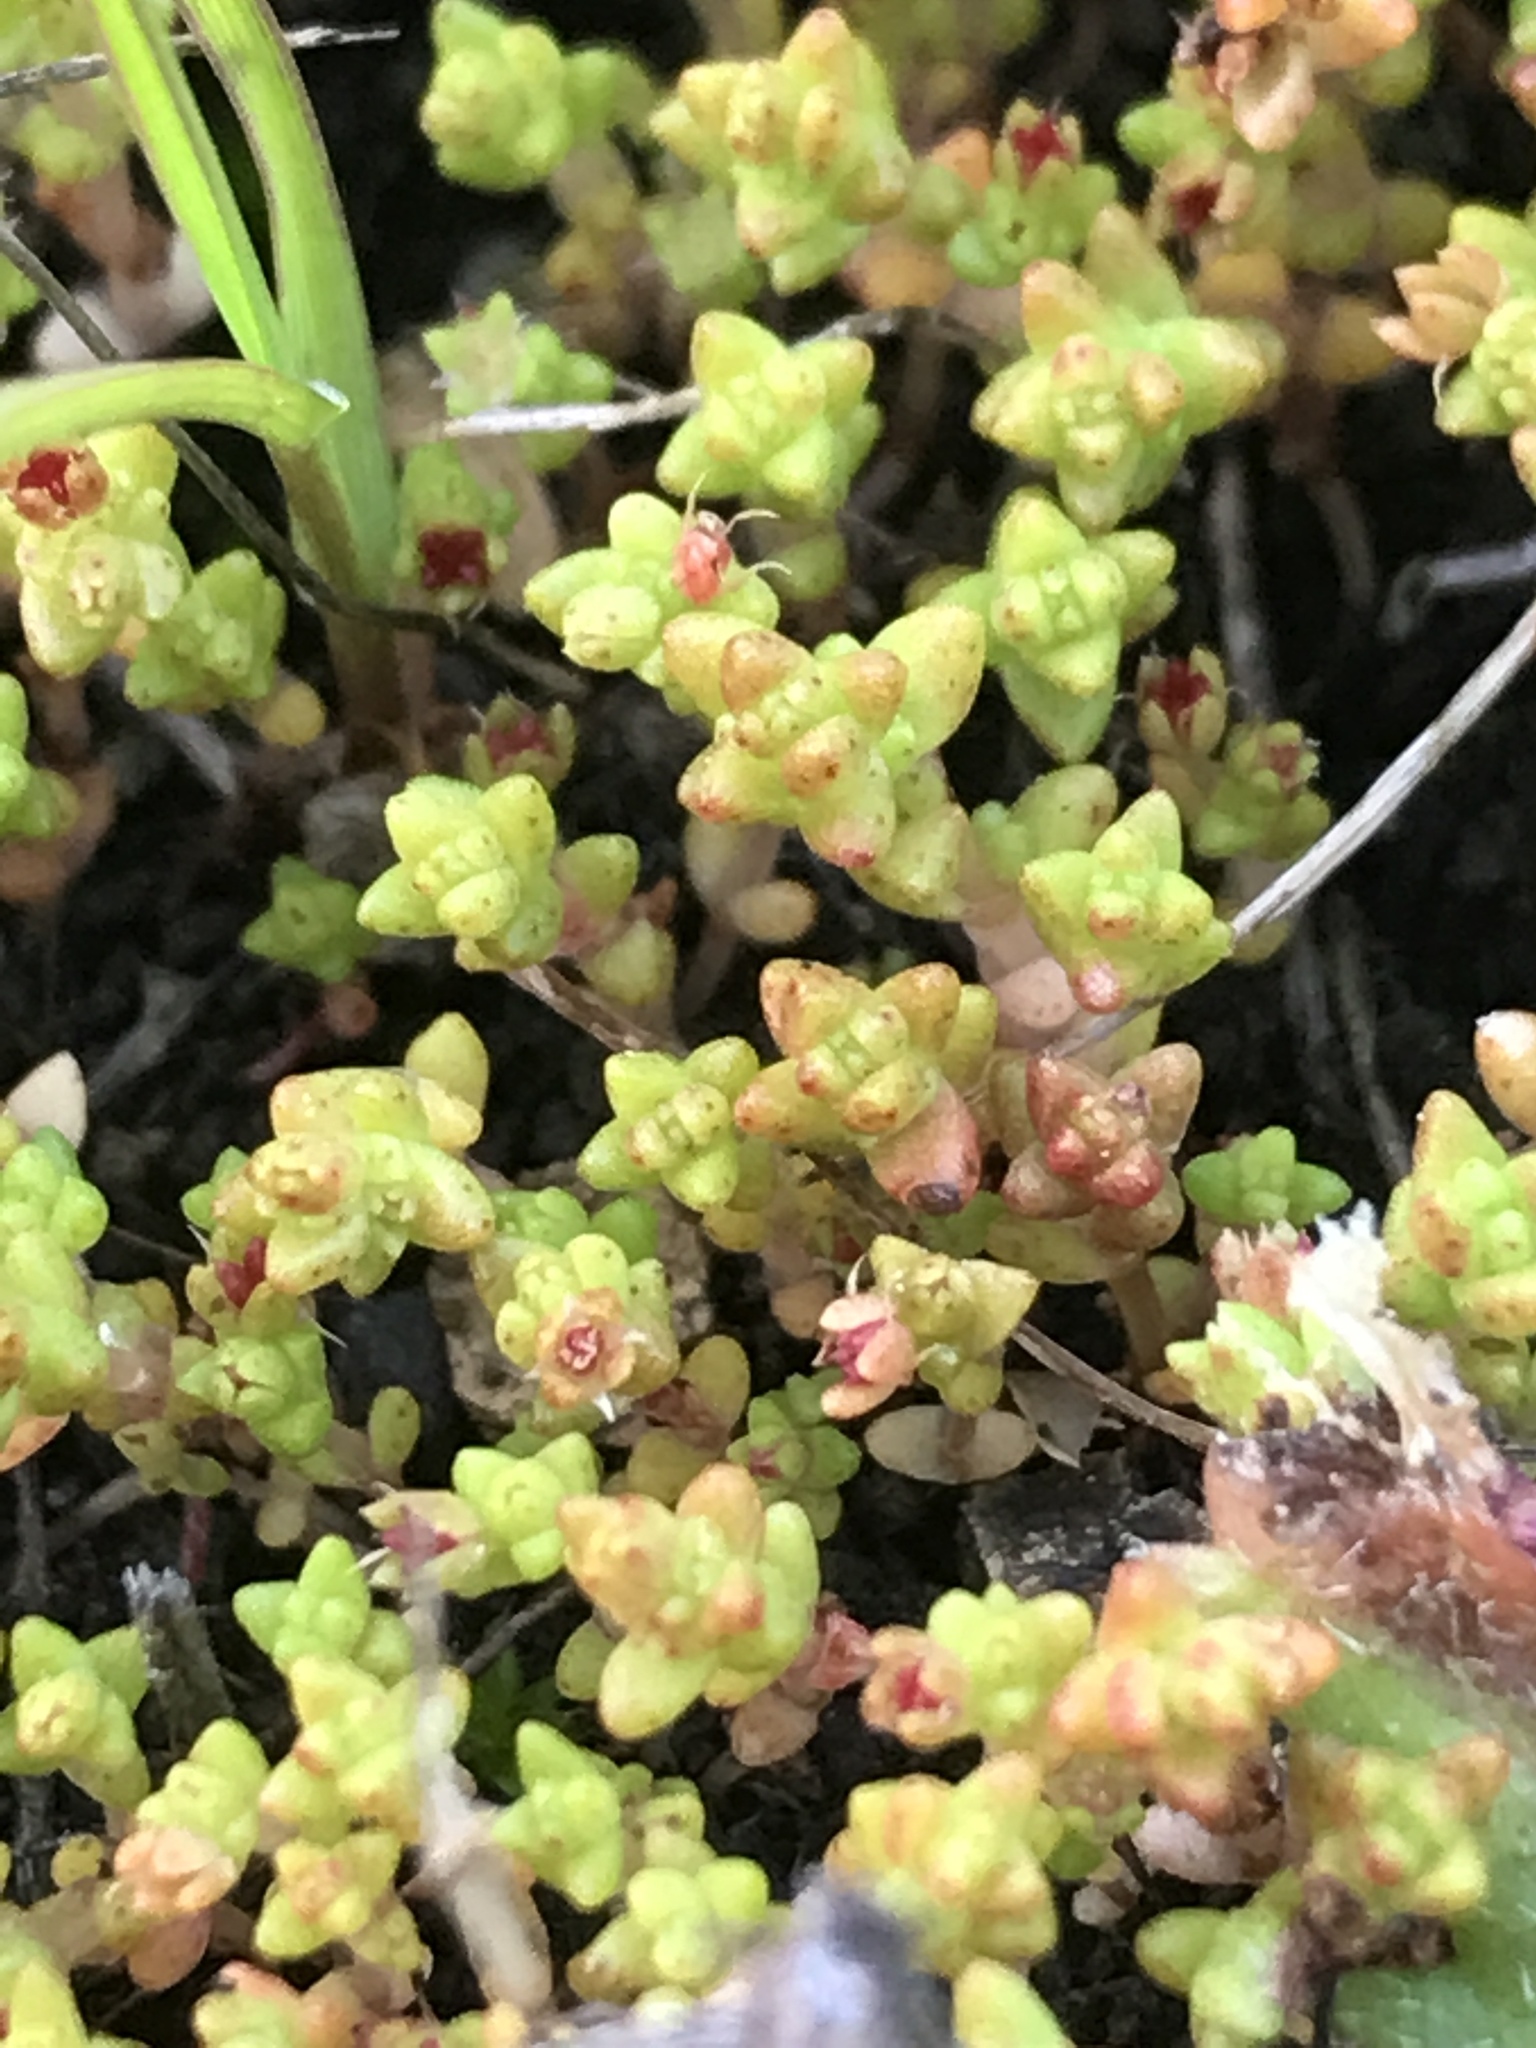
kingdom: Plantae
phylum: Tracheophyta
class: Magnoliopsida
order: Saxifragales
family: Crassulaceae
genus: Crassula
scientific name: Crassula connata
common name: Erect pygmyweed
